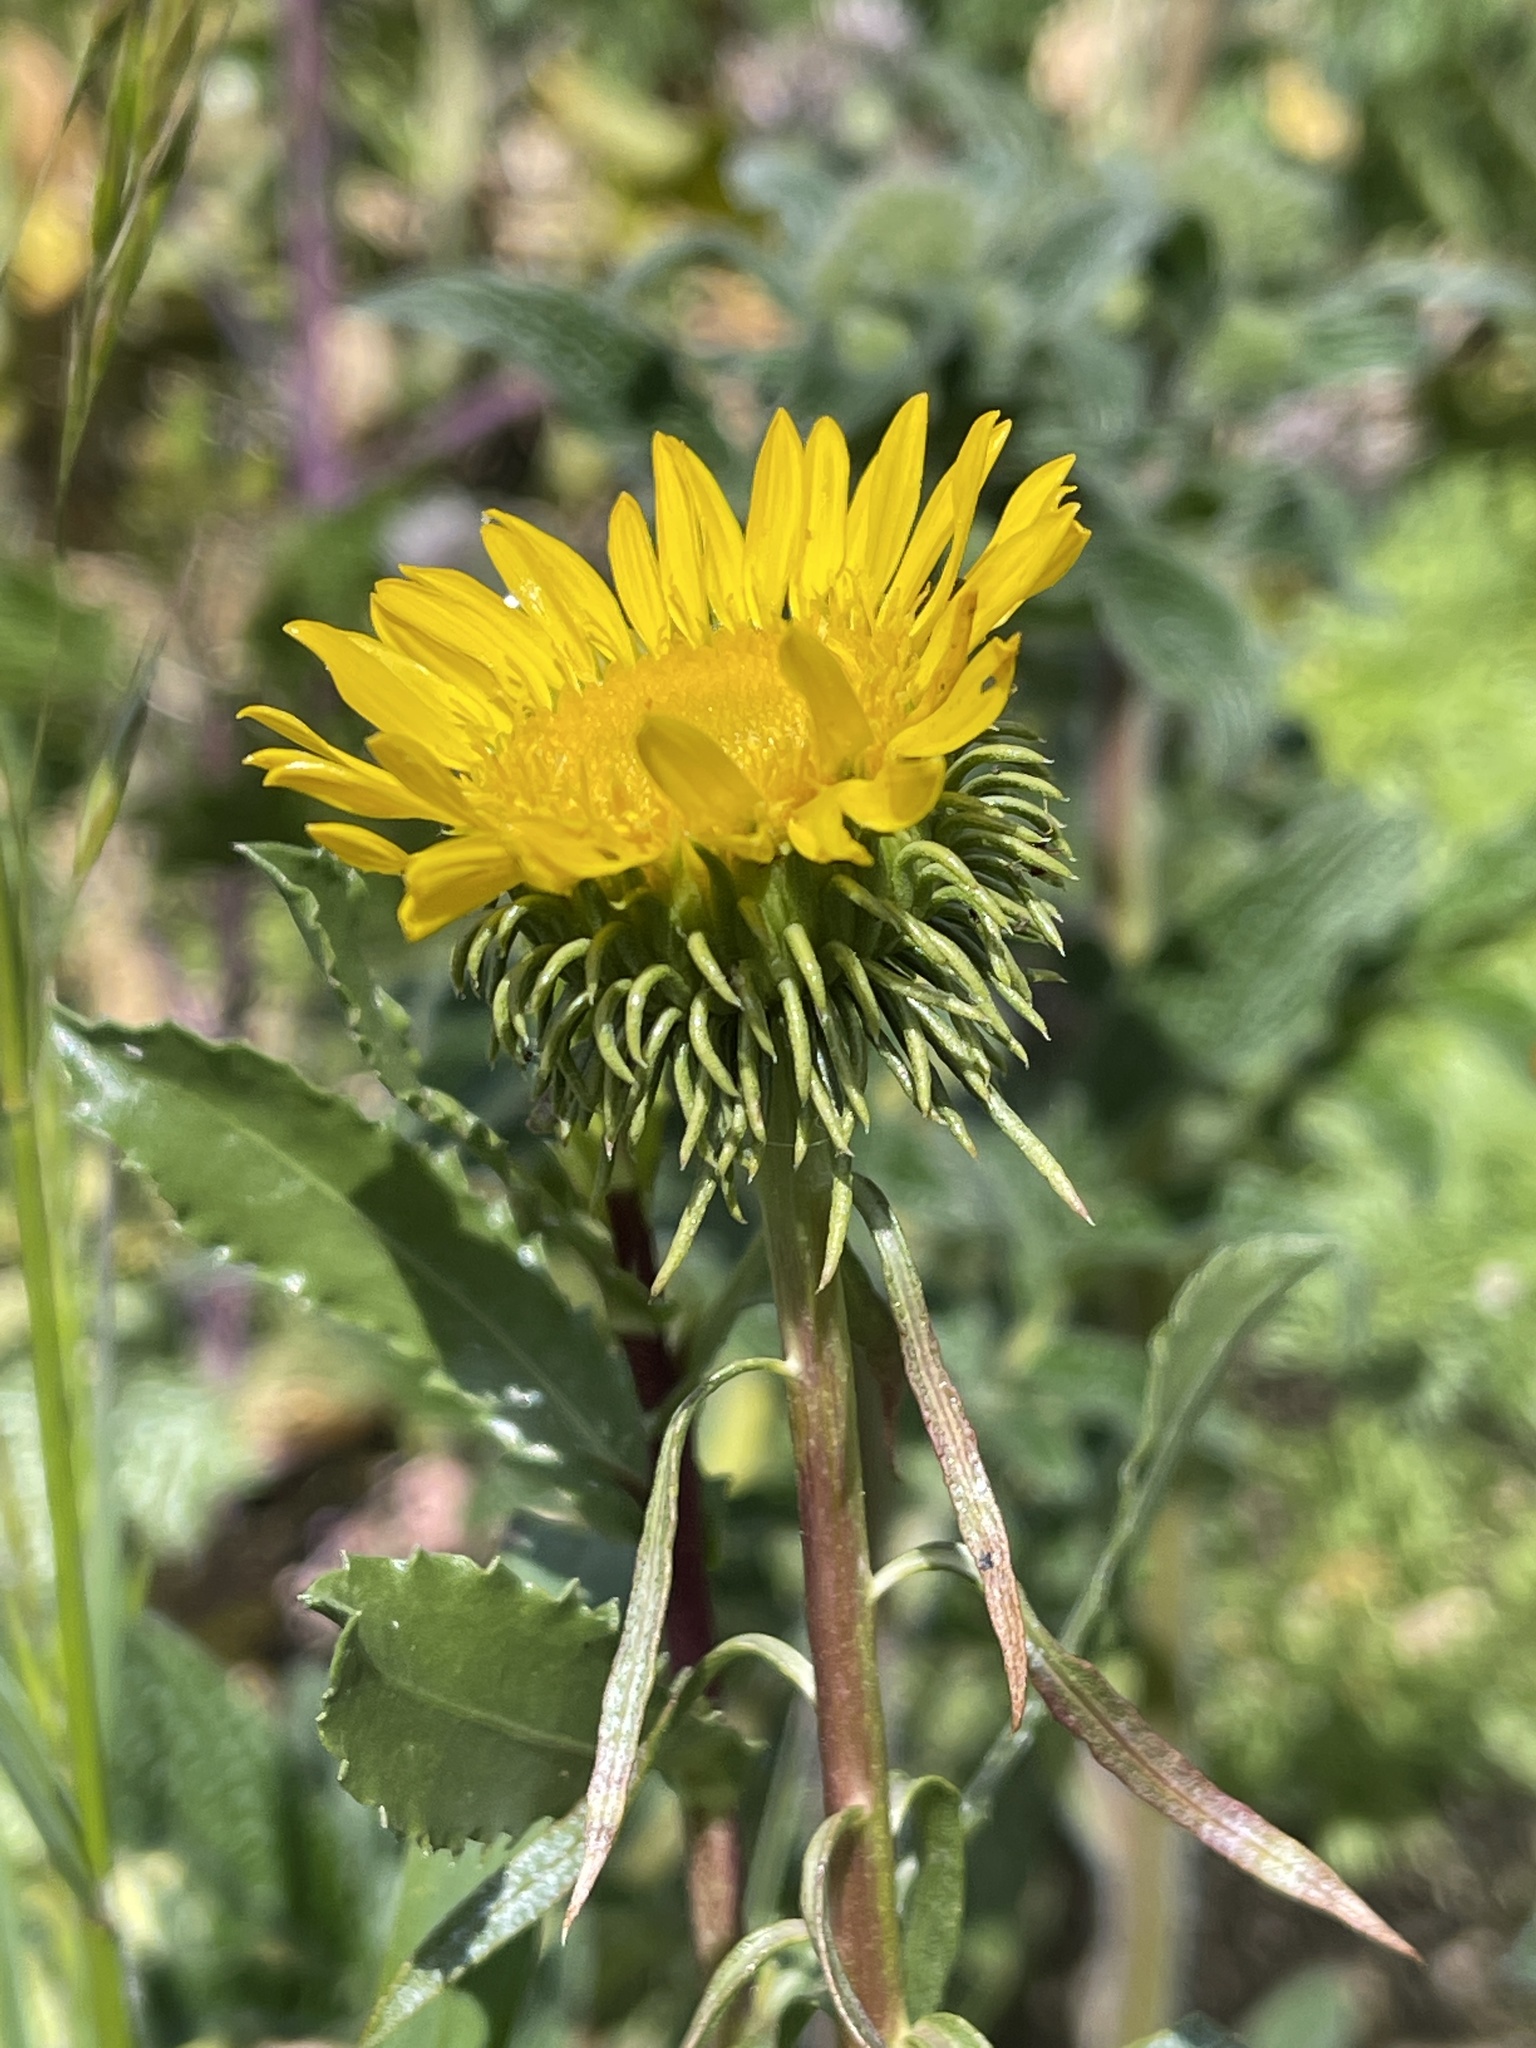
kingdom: Plantae
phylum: Tracheophyta
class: Magnoliopsida
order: Asterales
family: Asteraceae
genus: Grindelia
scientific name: Grindelia hirsutula
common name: Hairy gumweed
